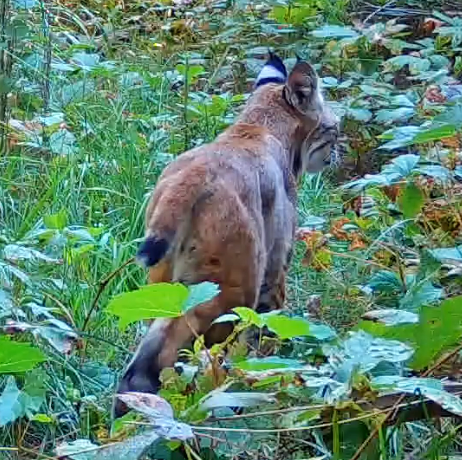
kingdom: Animalia
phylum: Chordata
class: Mammalia
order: Carnivora
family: Felidae
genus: Lynx
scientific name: Lynx rufus
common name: Bobcat
